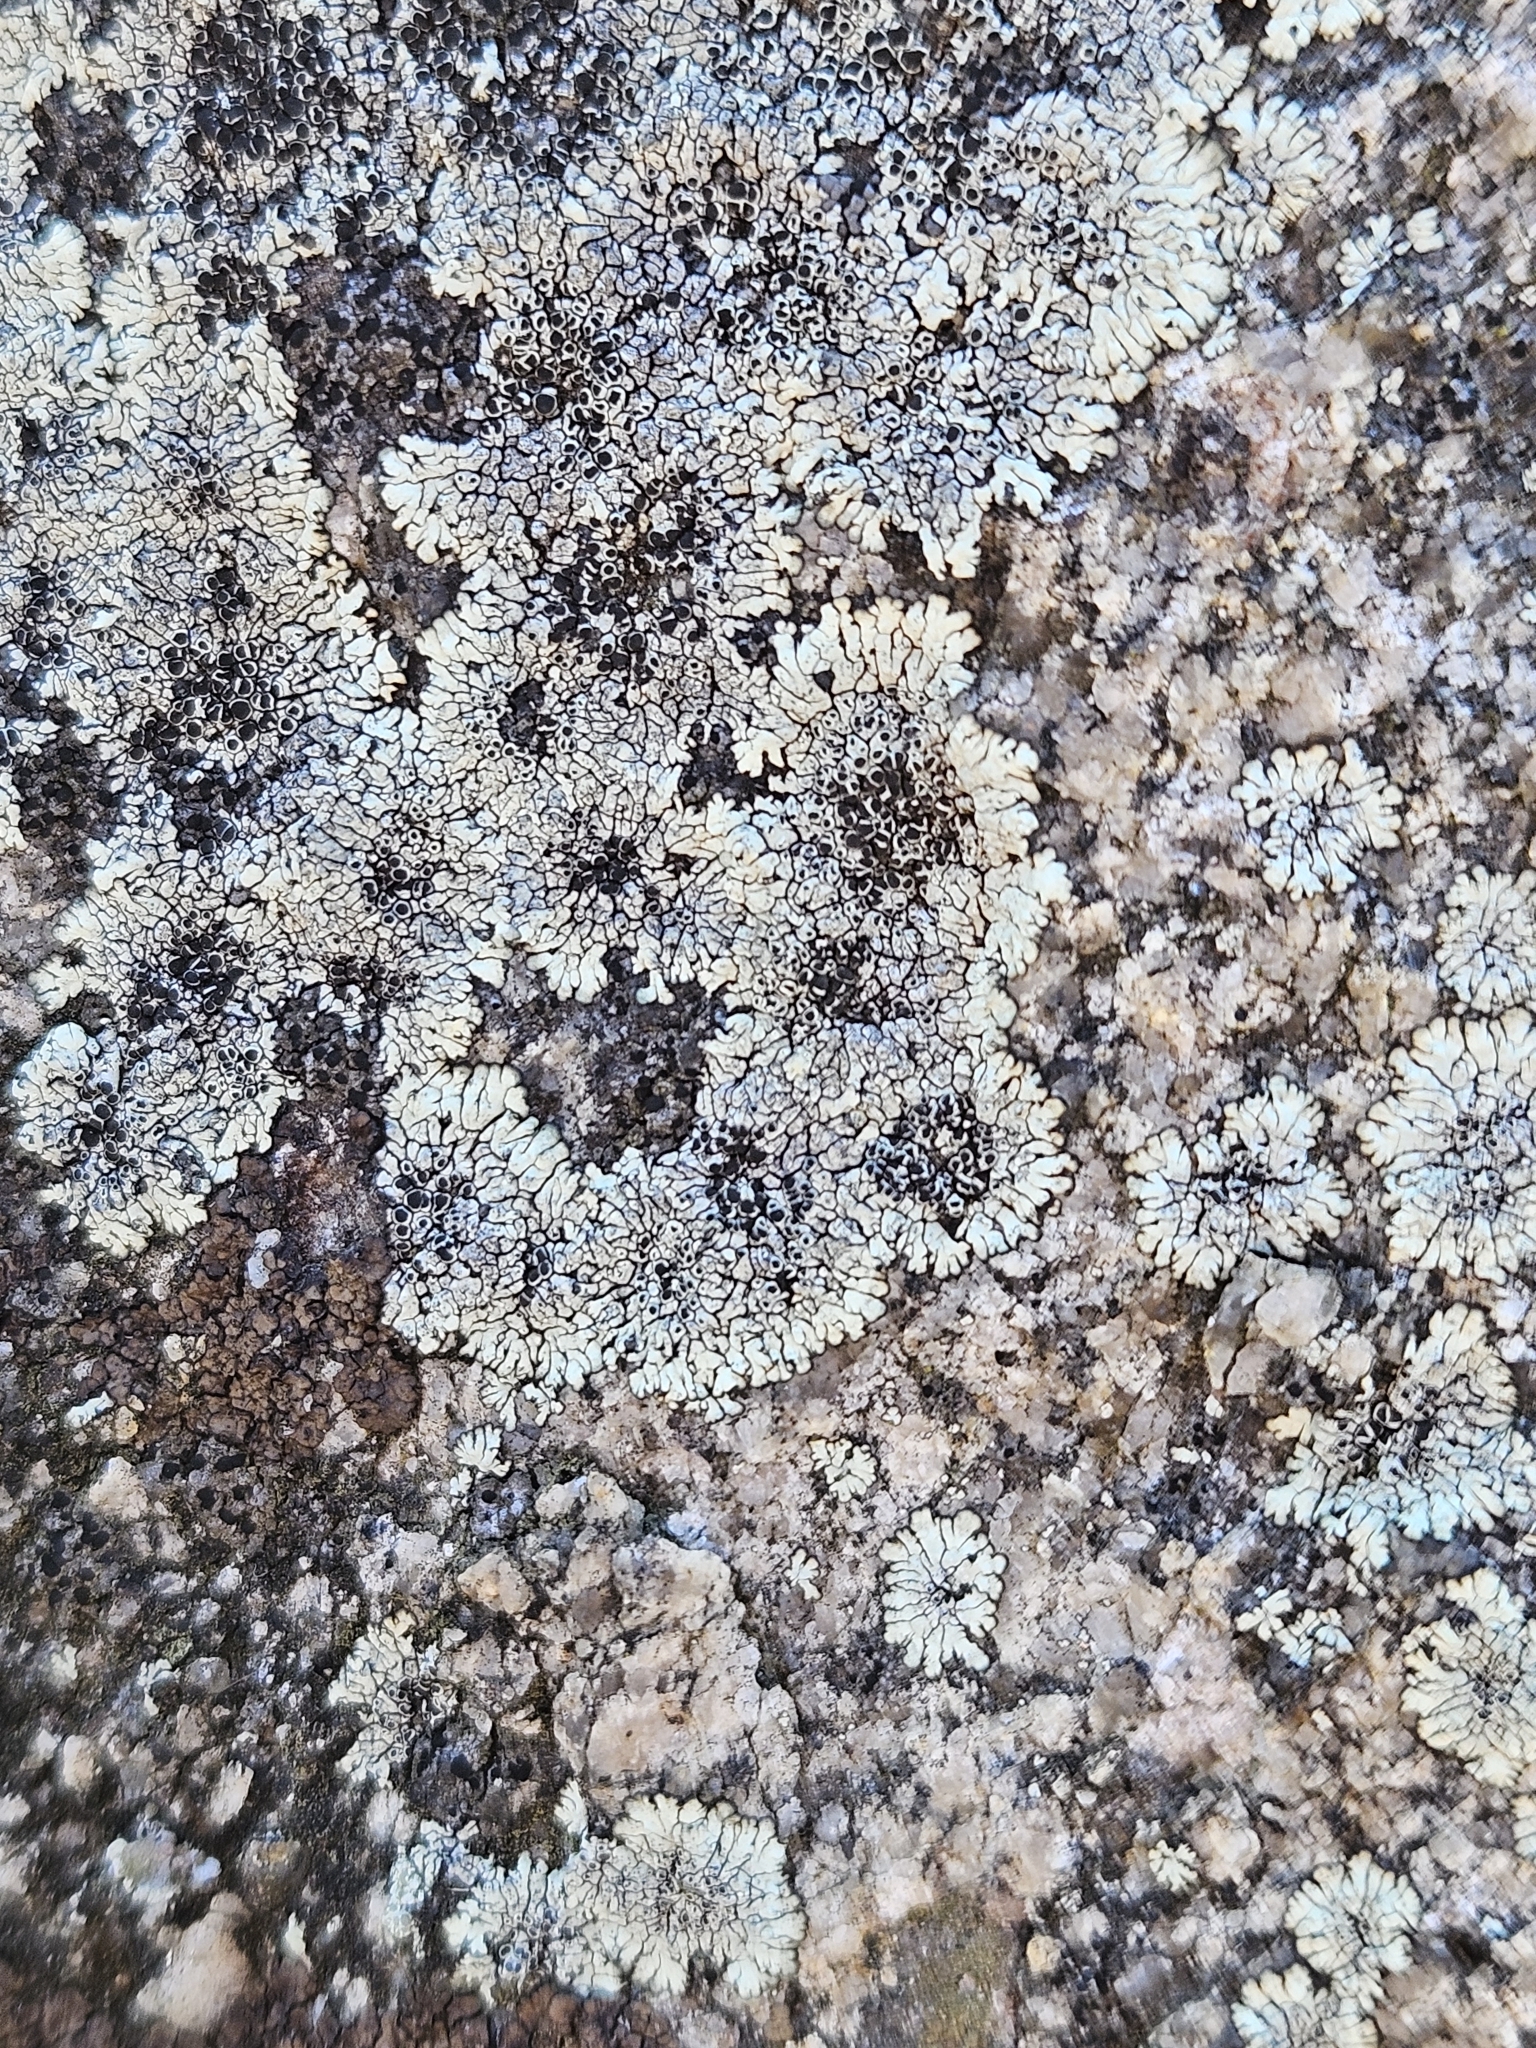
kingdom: Fungi
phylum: Ascomycota
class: Lecanoromycetes
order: Caliciales
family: Caliciaceae
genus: Dimelaena
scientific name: Dimelaena oreina
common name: Golden moonglow lichen
